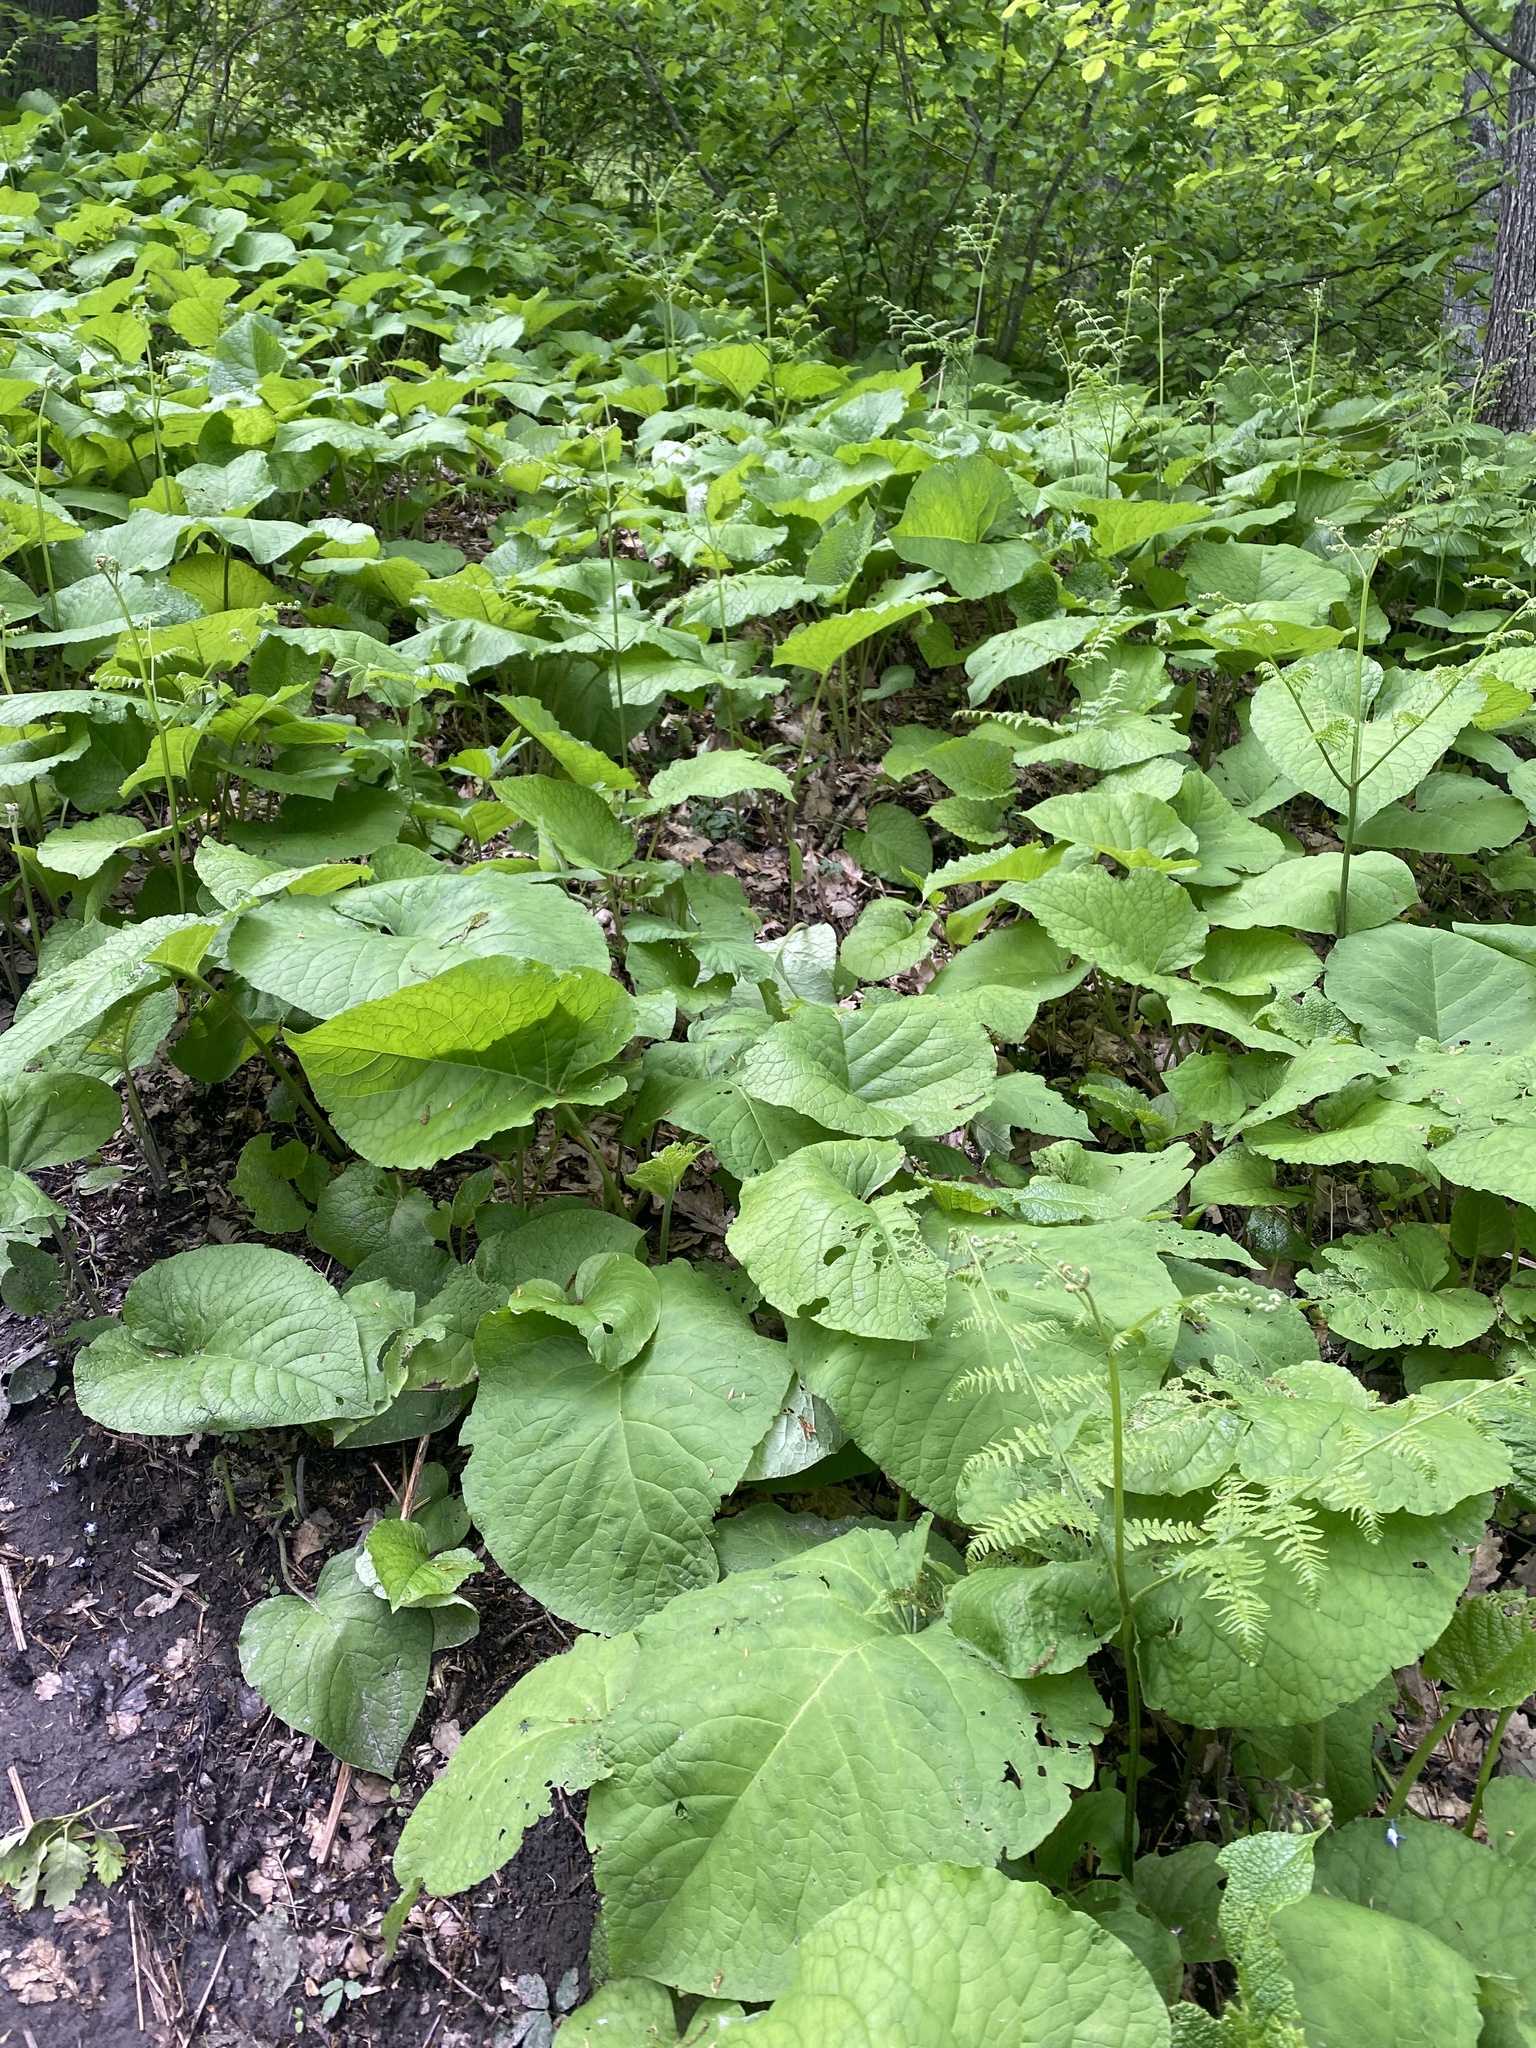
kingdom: Plantae
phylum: Tracheophyta
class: Magnoliopsida
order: Boraginales
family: Boraginaceae
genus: Trachystemon
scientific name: Trachystemon orientale
